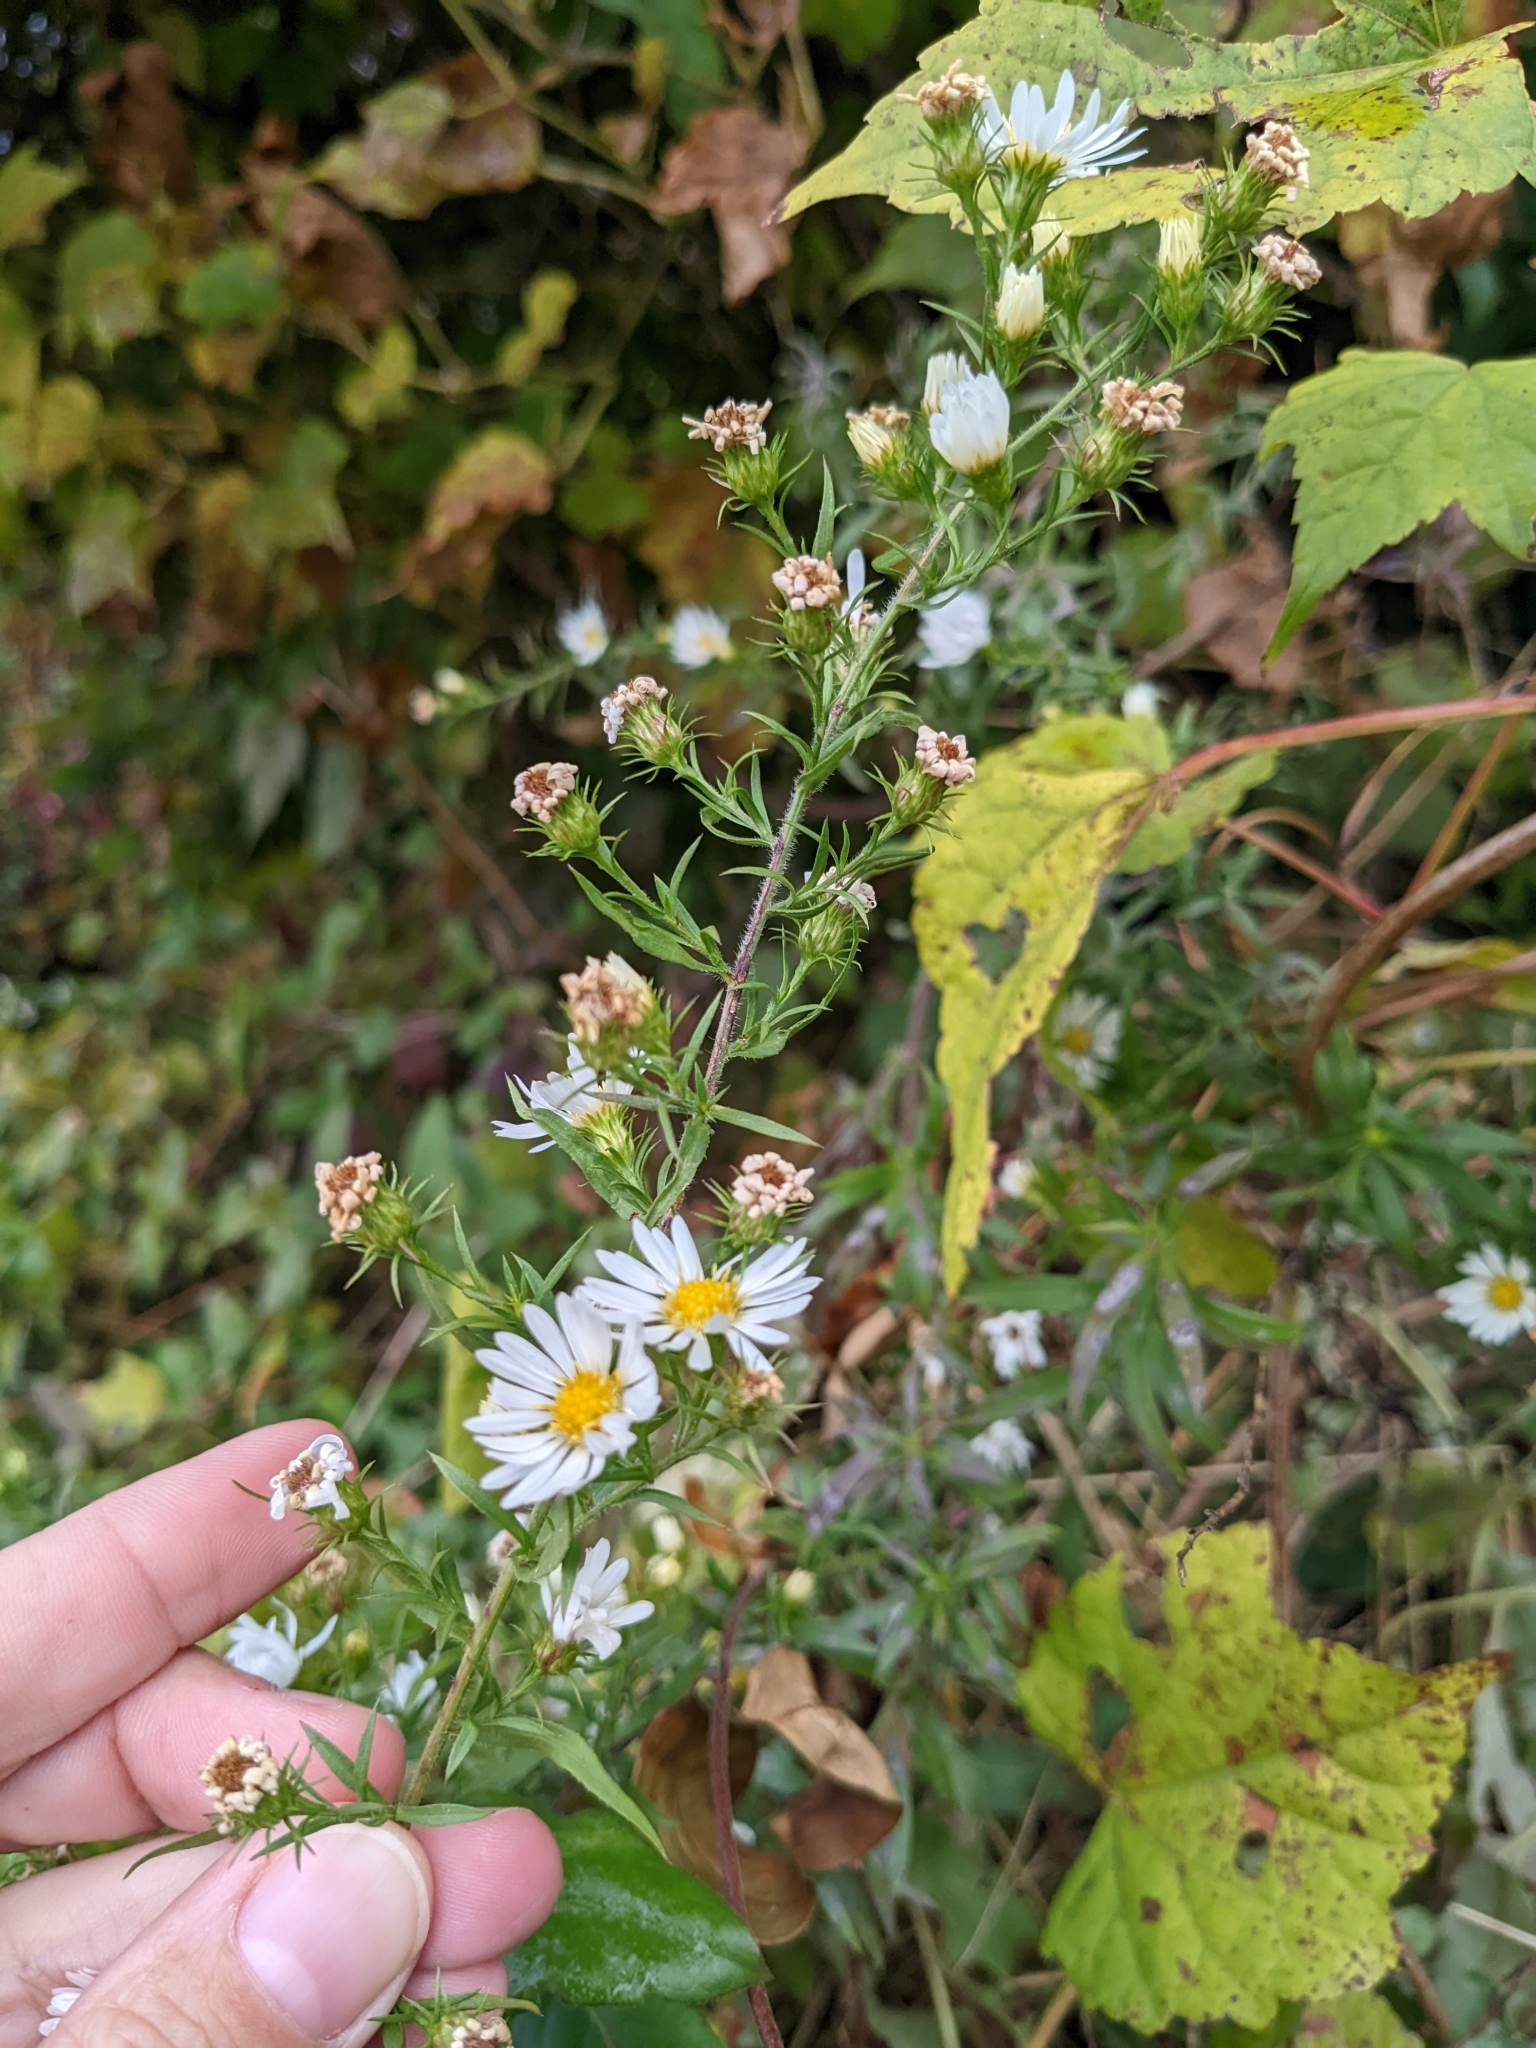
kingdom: Plantae
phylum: Tracheophyta
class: Magnoliopsida
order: Asterales
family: Asteraceae
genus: Symphyotrichum
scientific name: Symphyotrichum pilosum
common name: Awl aster
